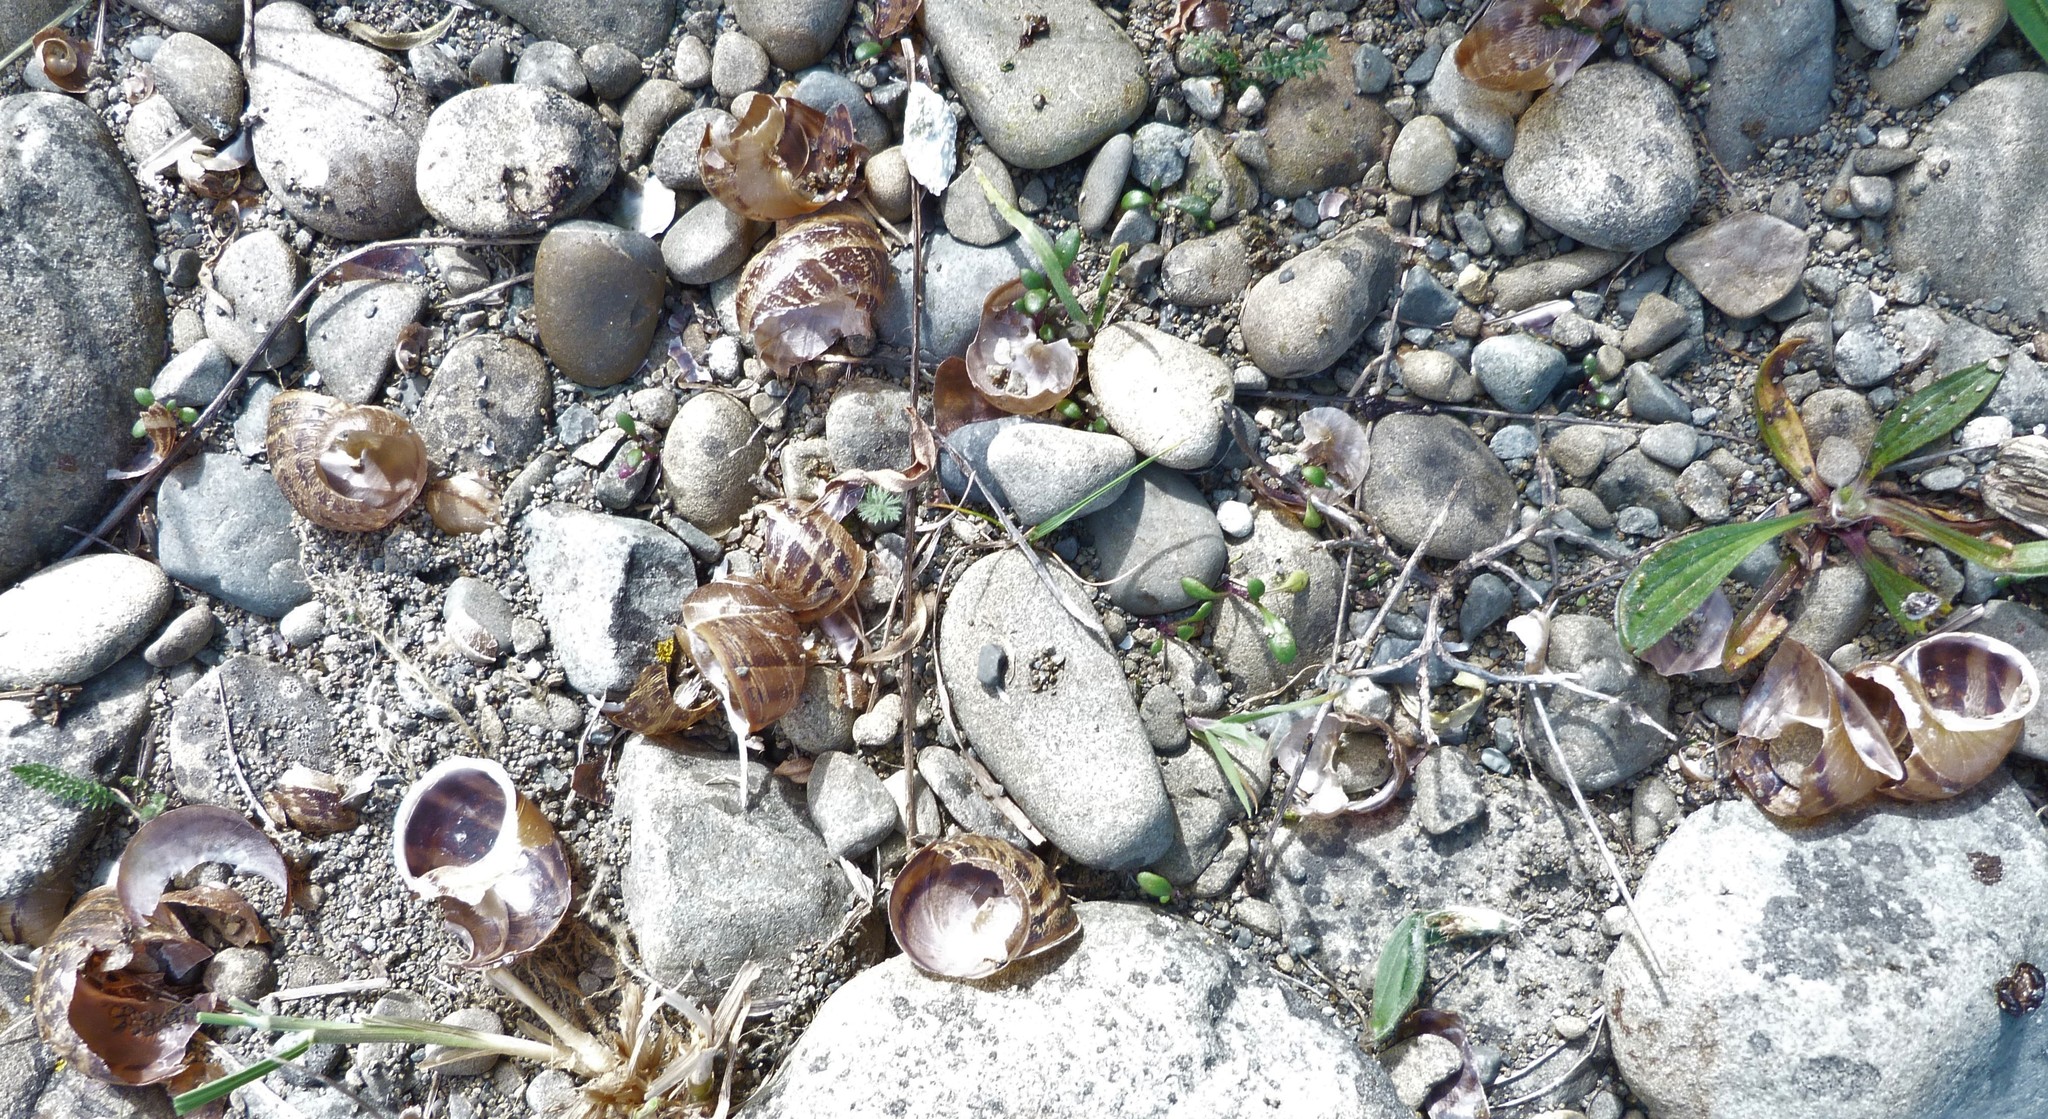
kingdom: Animalia
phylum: Mollusca
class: Gastropoda
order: Stylommatophora
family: Helicidae
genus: Cornu
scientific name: Cornu aspersum
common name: Brown garden snail
